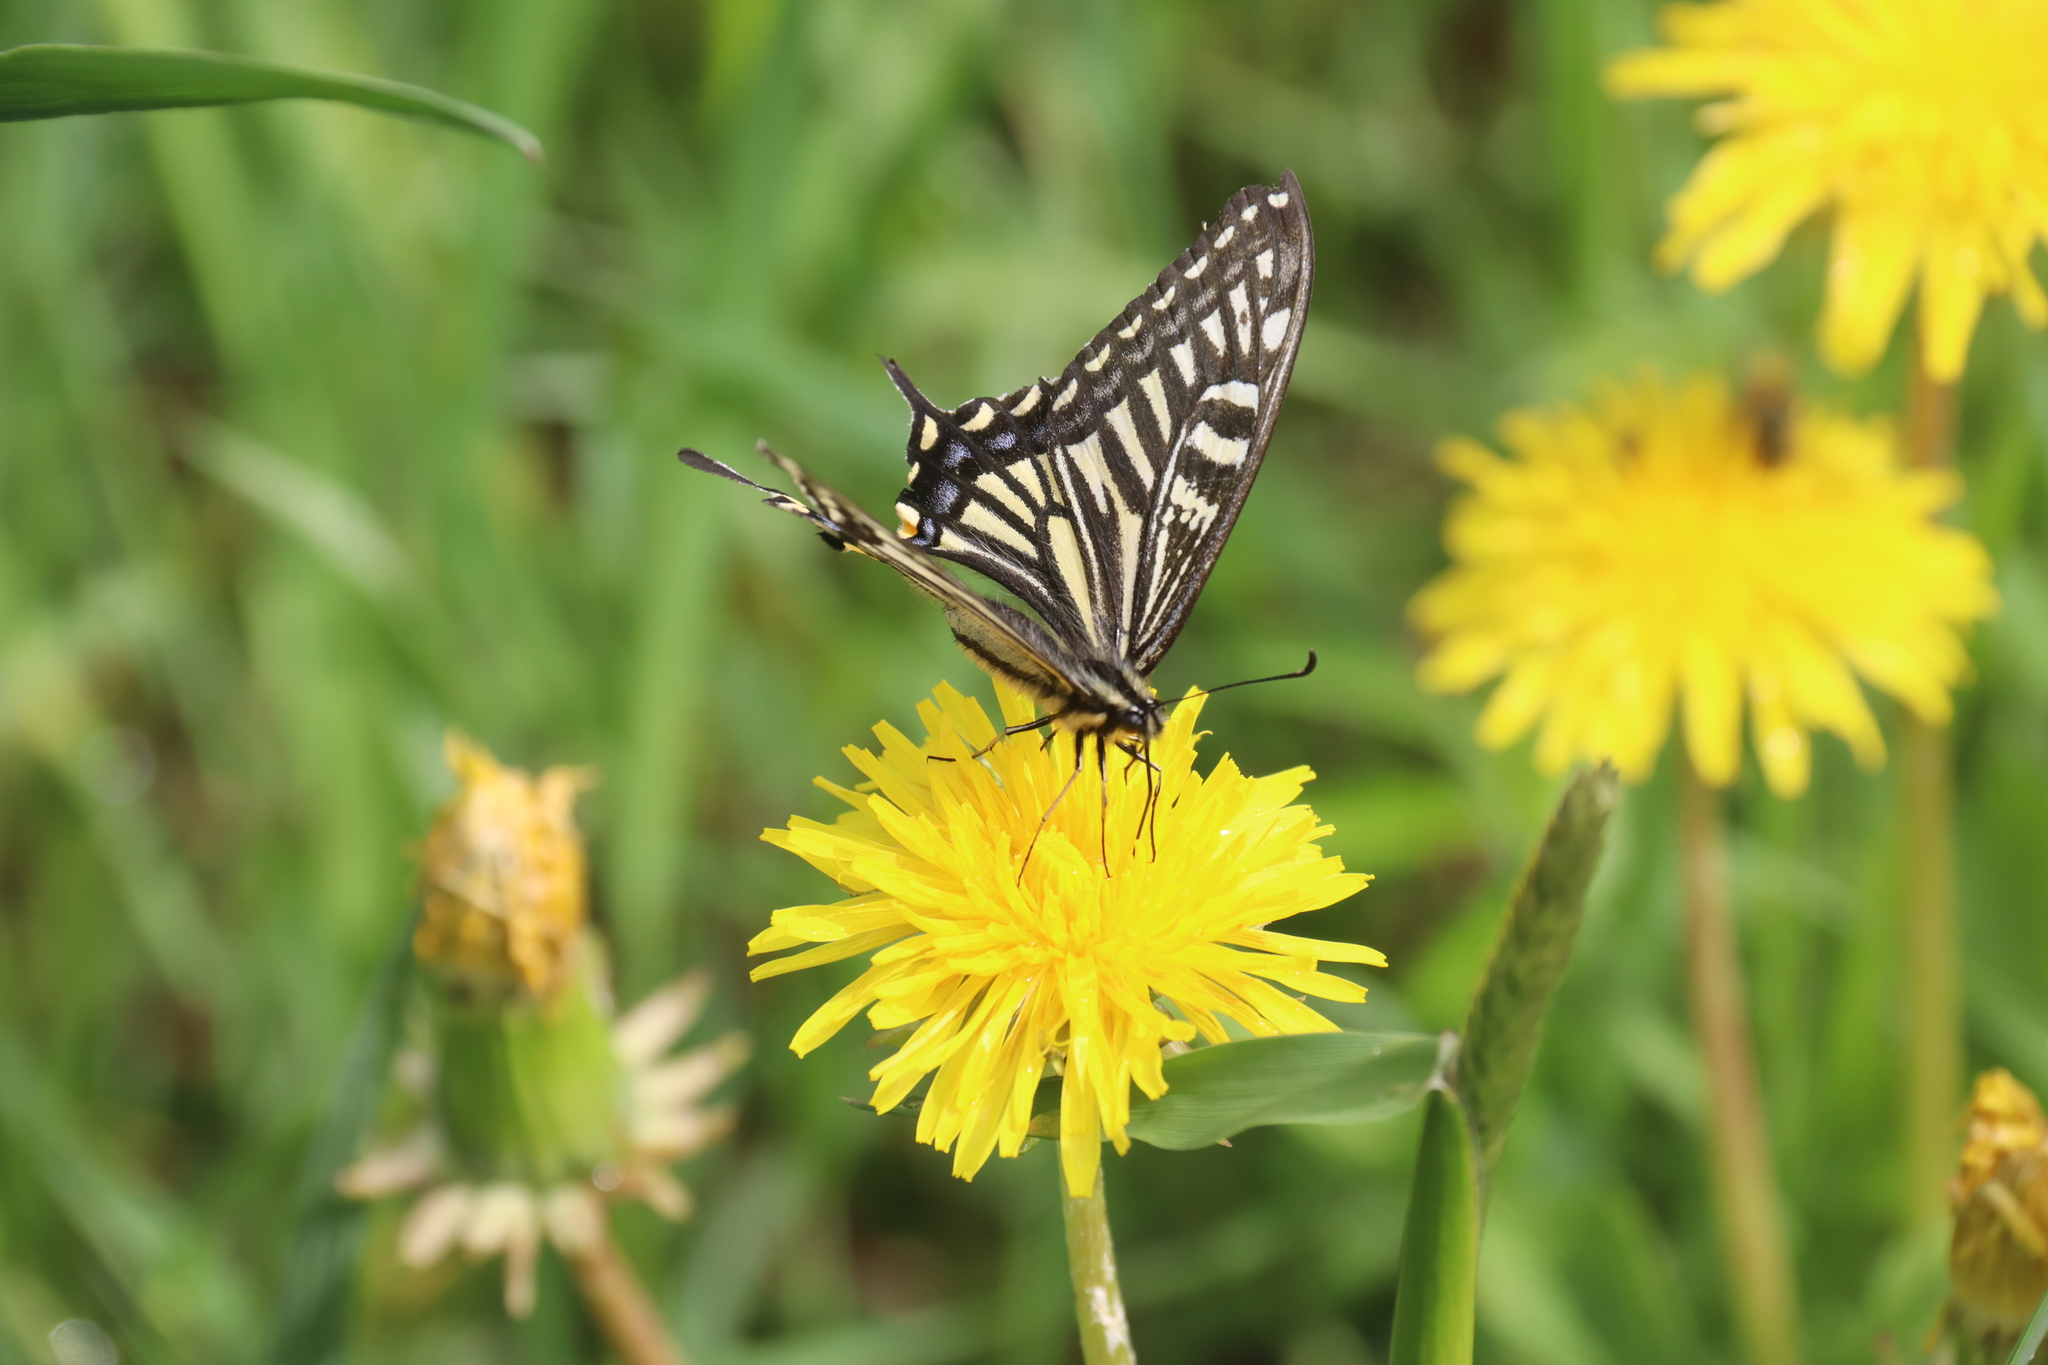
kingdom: Animalia
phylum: Arthropoda
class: Insecta
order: Lepidoptera
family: Papilionidae
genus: Papilio
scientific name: Papilio xuthus
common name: Asian swallowtail
